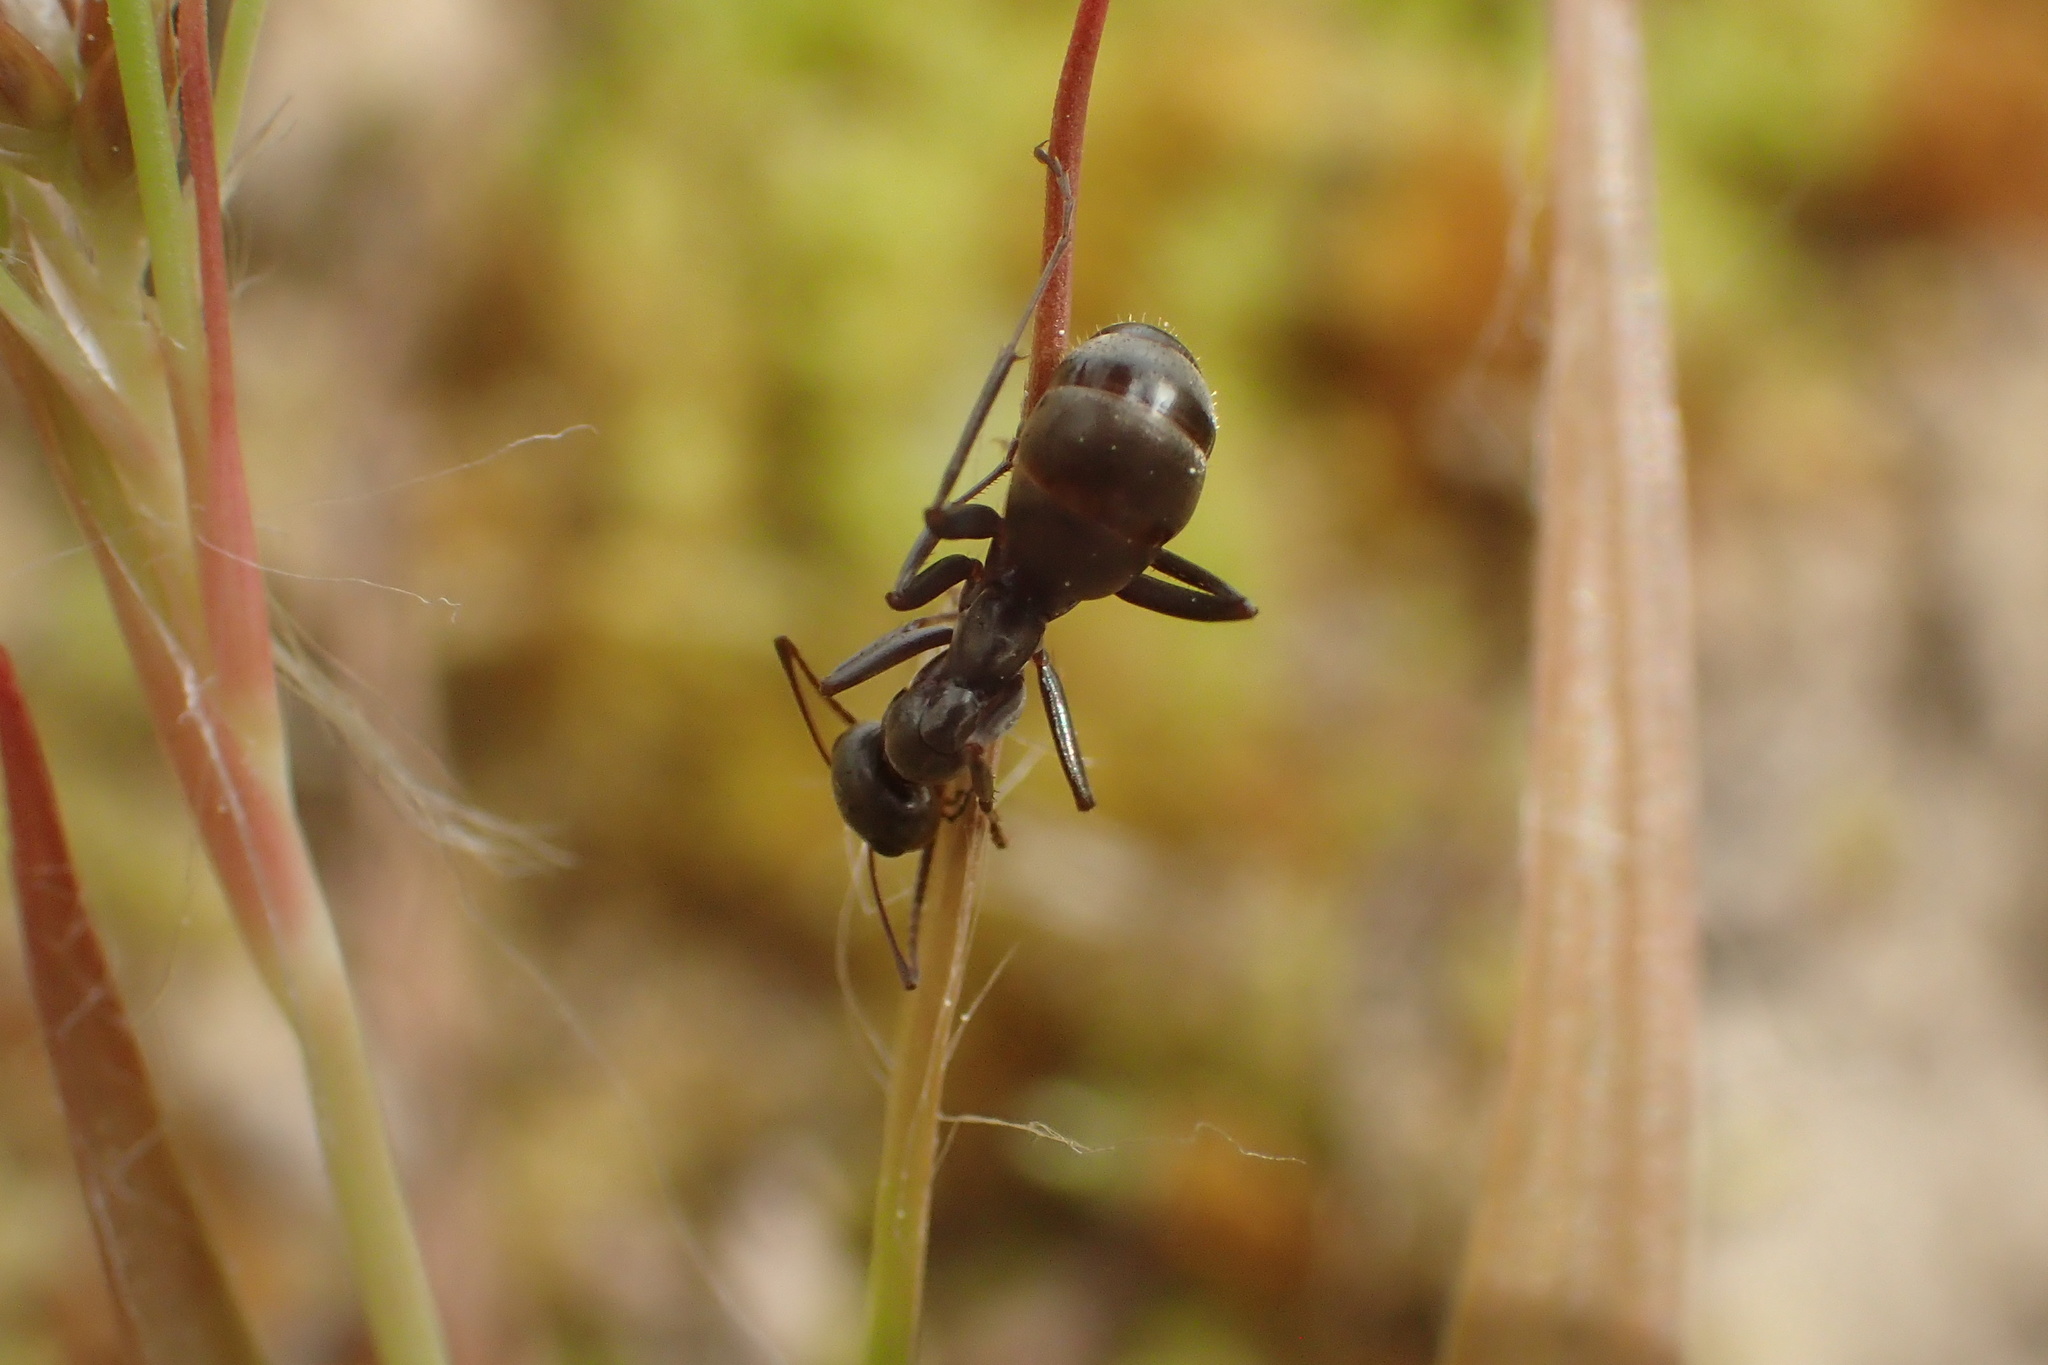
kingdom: Animalia
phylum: Arthropoda
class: Insecta
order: Hymenoptera
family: Formicidae
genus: Formica
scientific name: Formica subsericea
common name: Silky field ant
